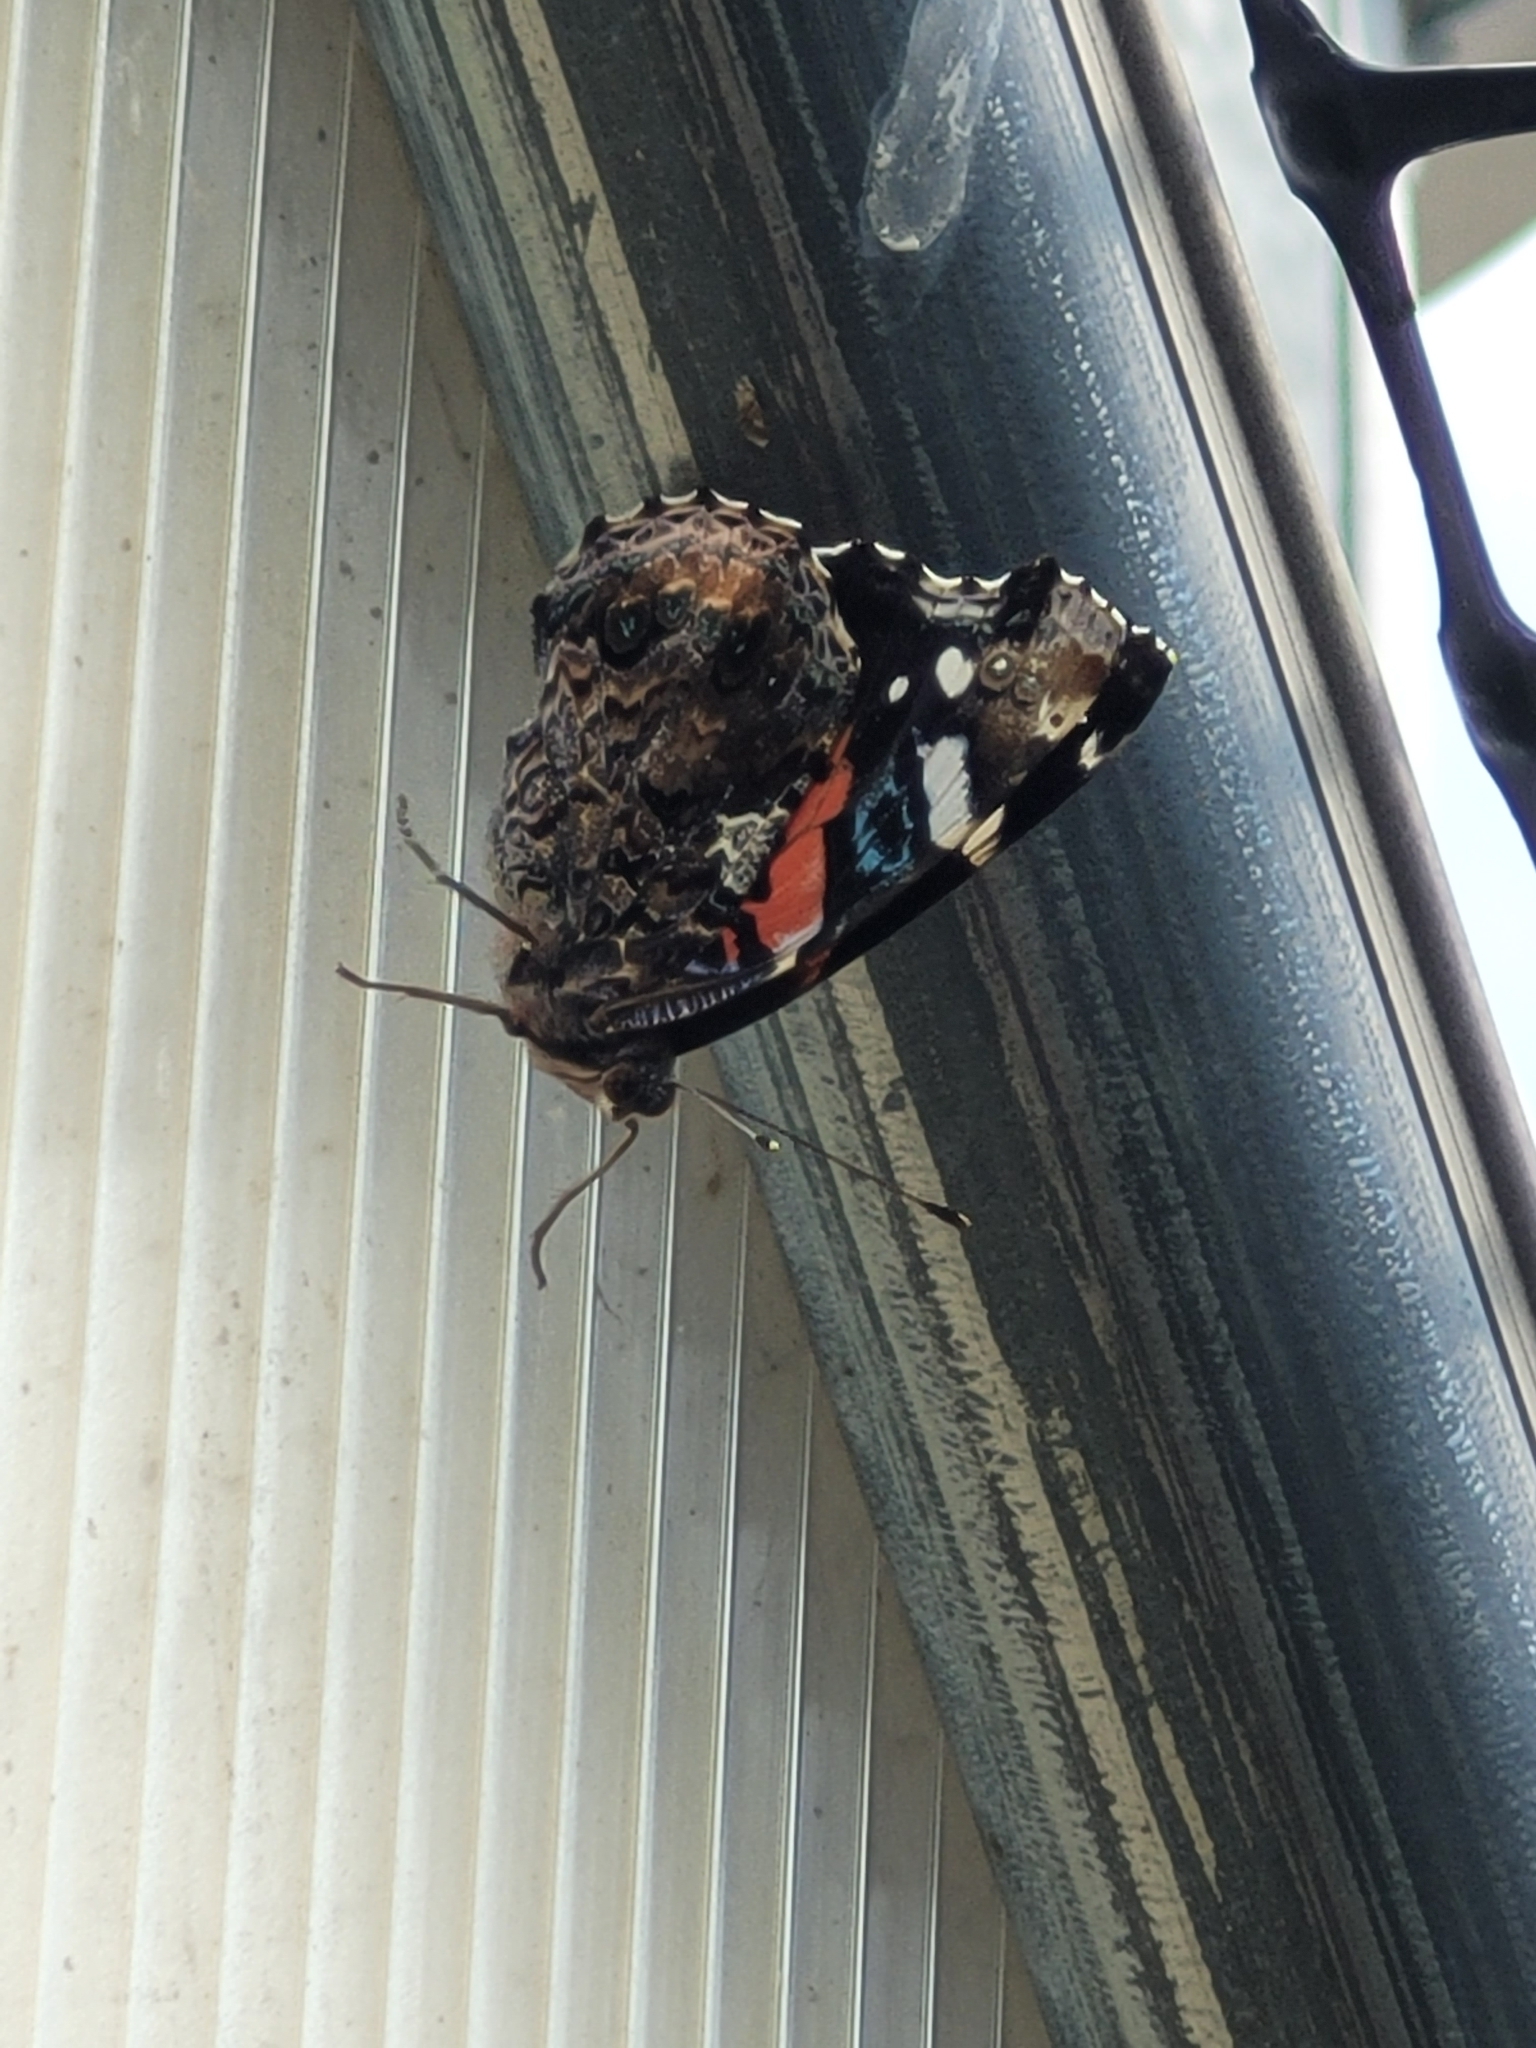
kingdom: Animalia
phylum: Arthropoda
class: Insecta
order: Lepidoptera
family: Nymphalidae
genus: Vanessa
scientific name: Vanessa atalanta
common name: Red admiral
